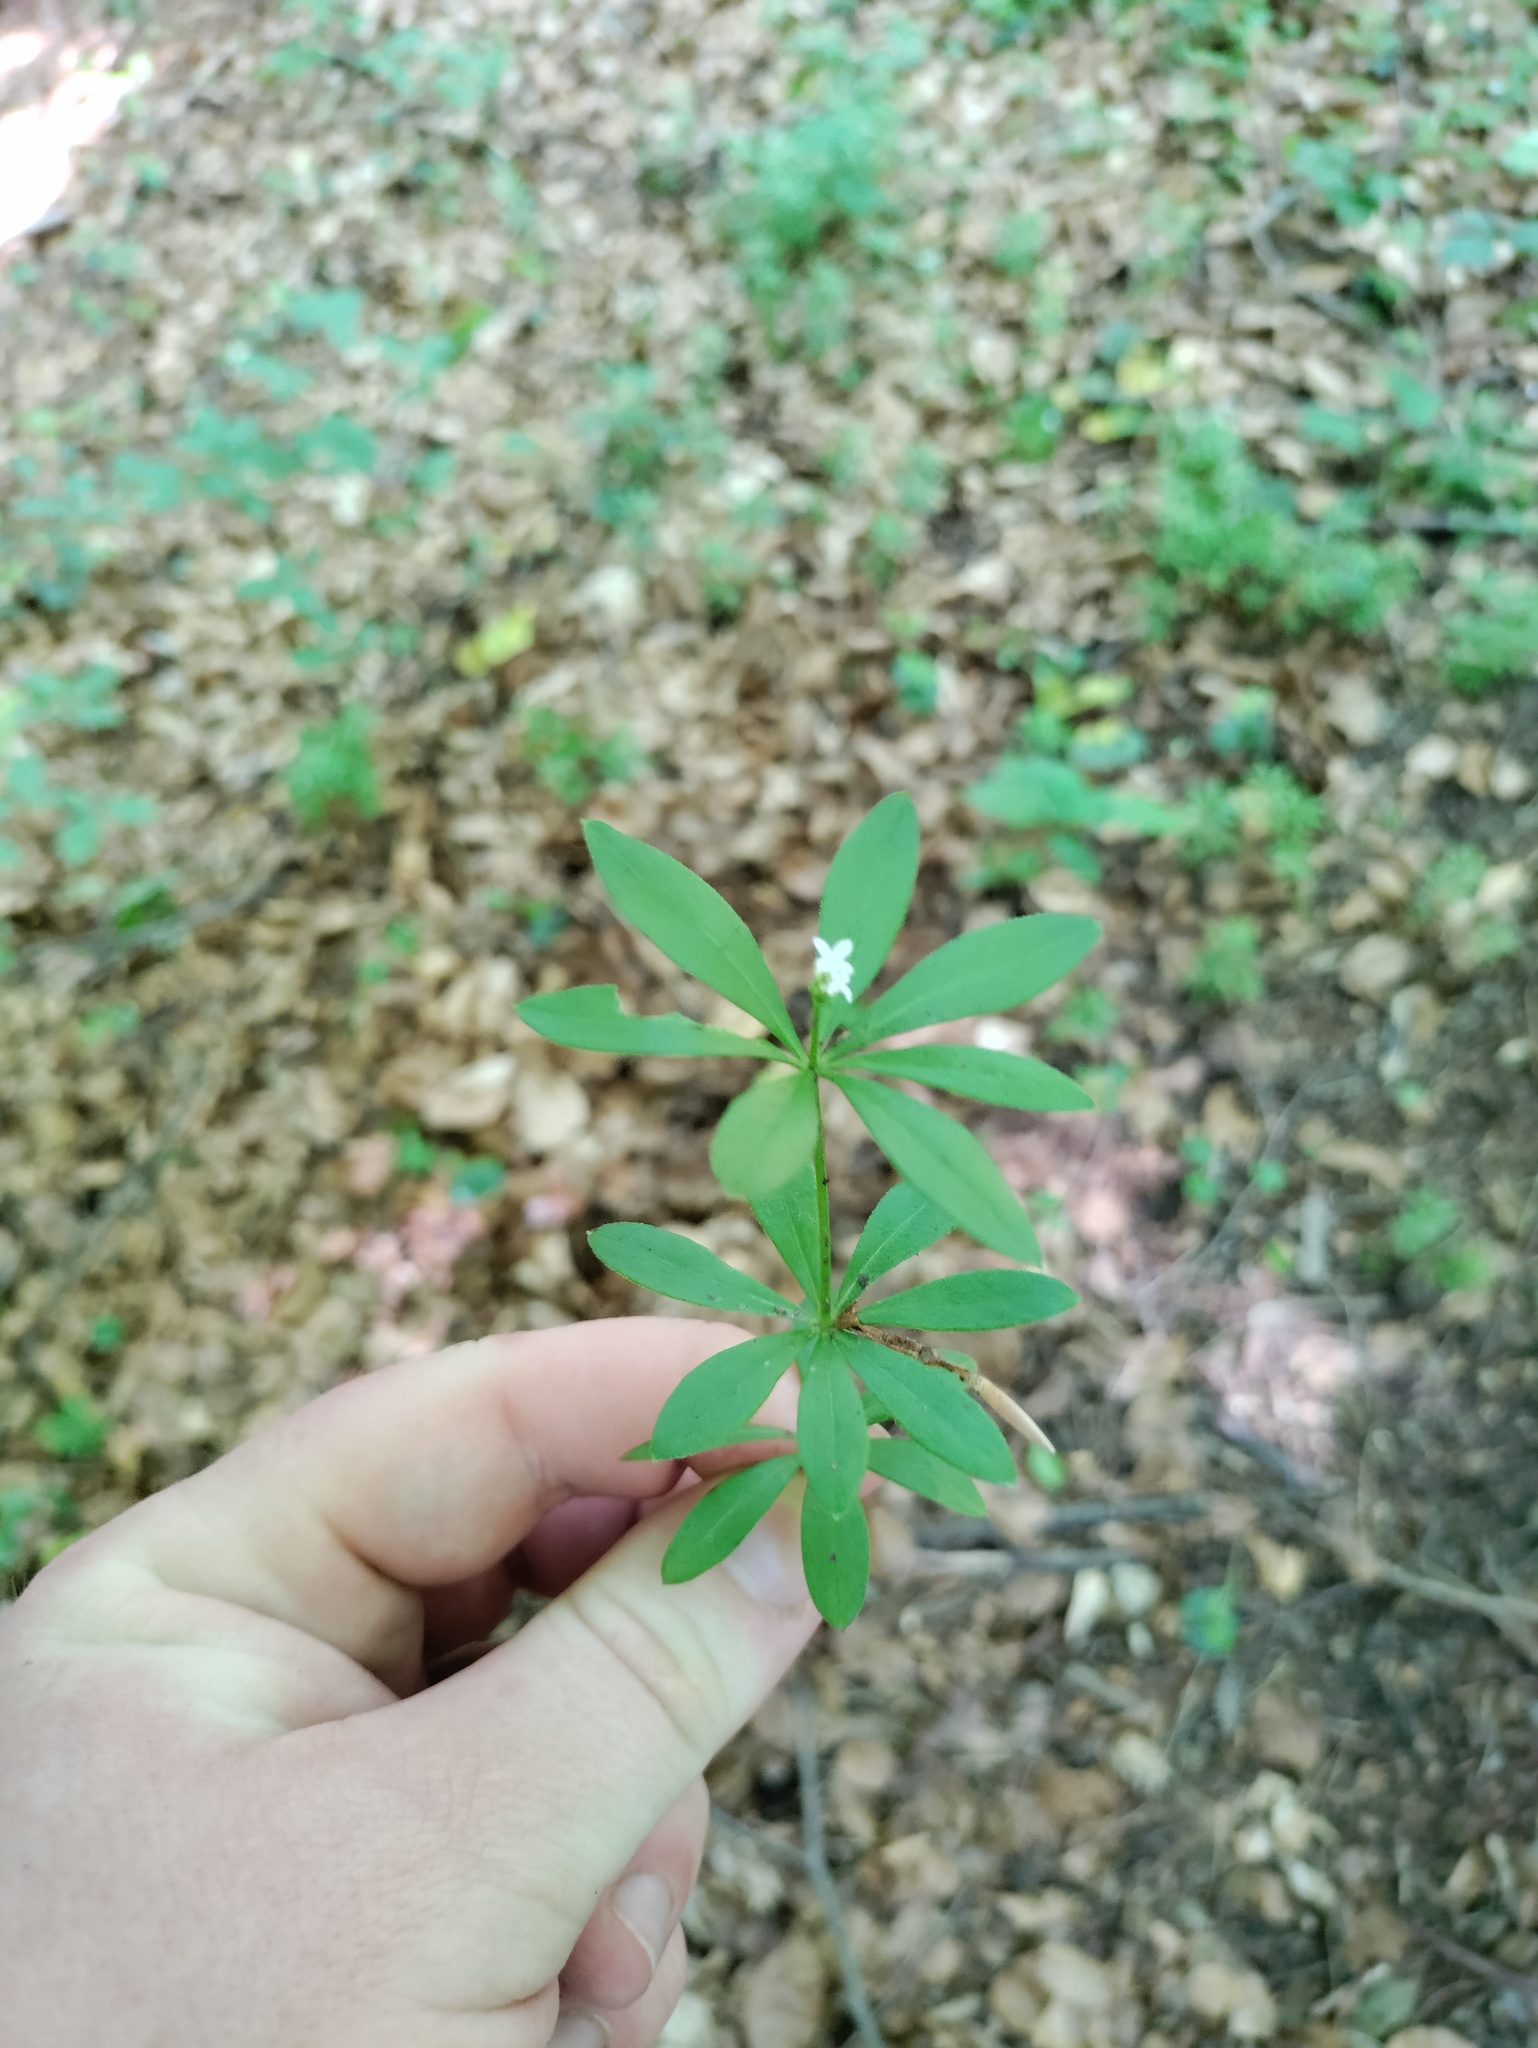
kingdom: Plantae
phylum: Tracheophyta
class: Magnoliopsida
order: Gentianales
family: Rubiaceae
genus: Galium
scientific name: Galium odoratum
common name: Sweet woodruff
